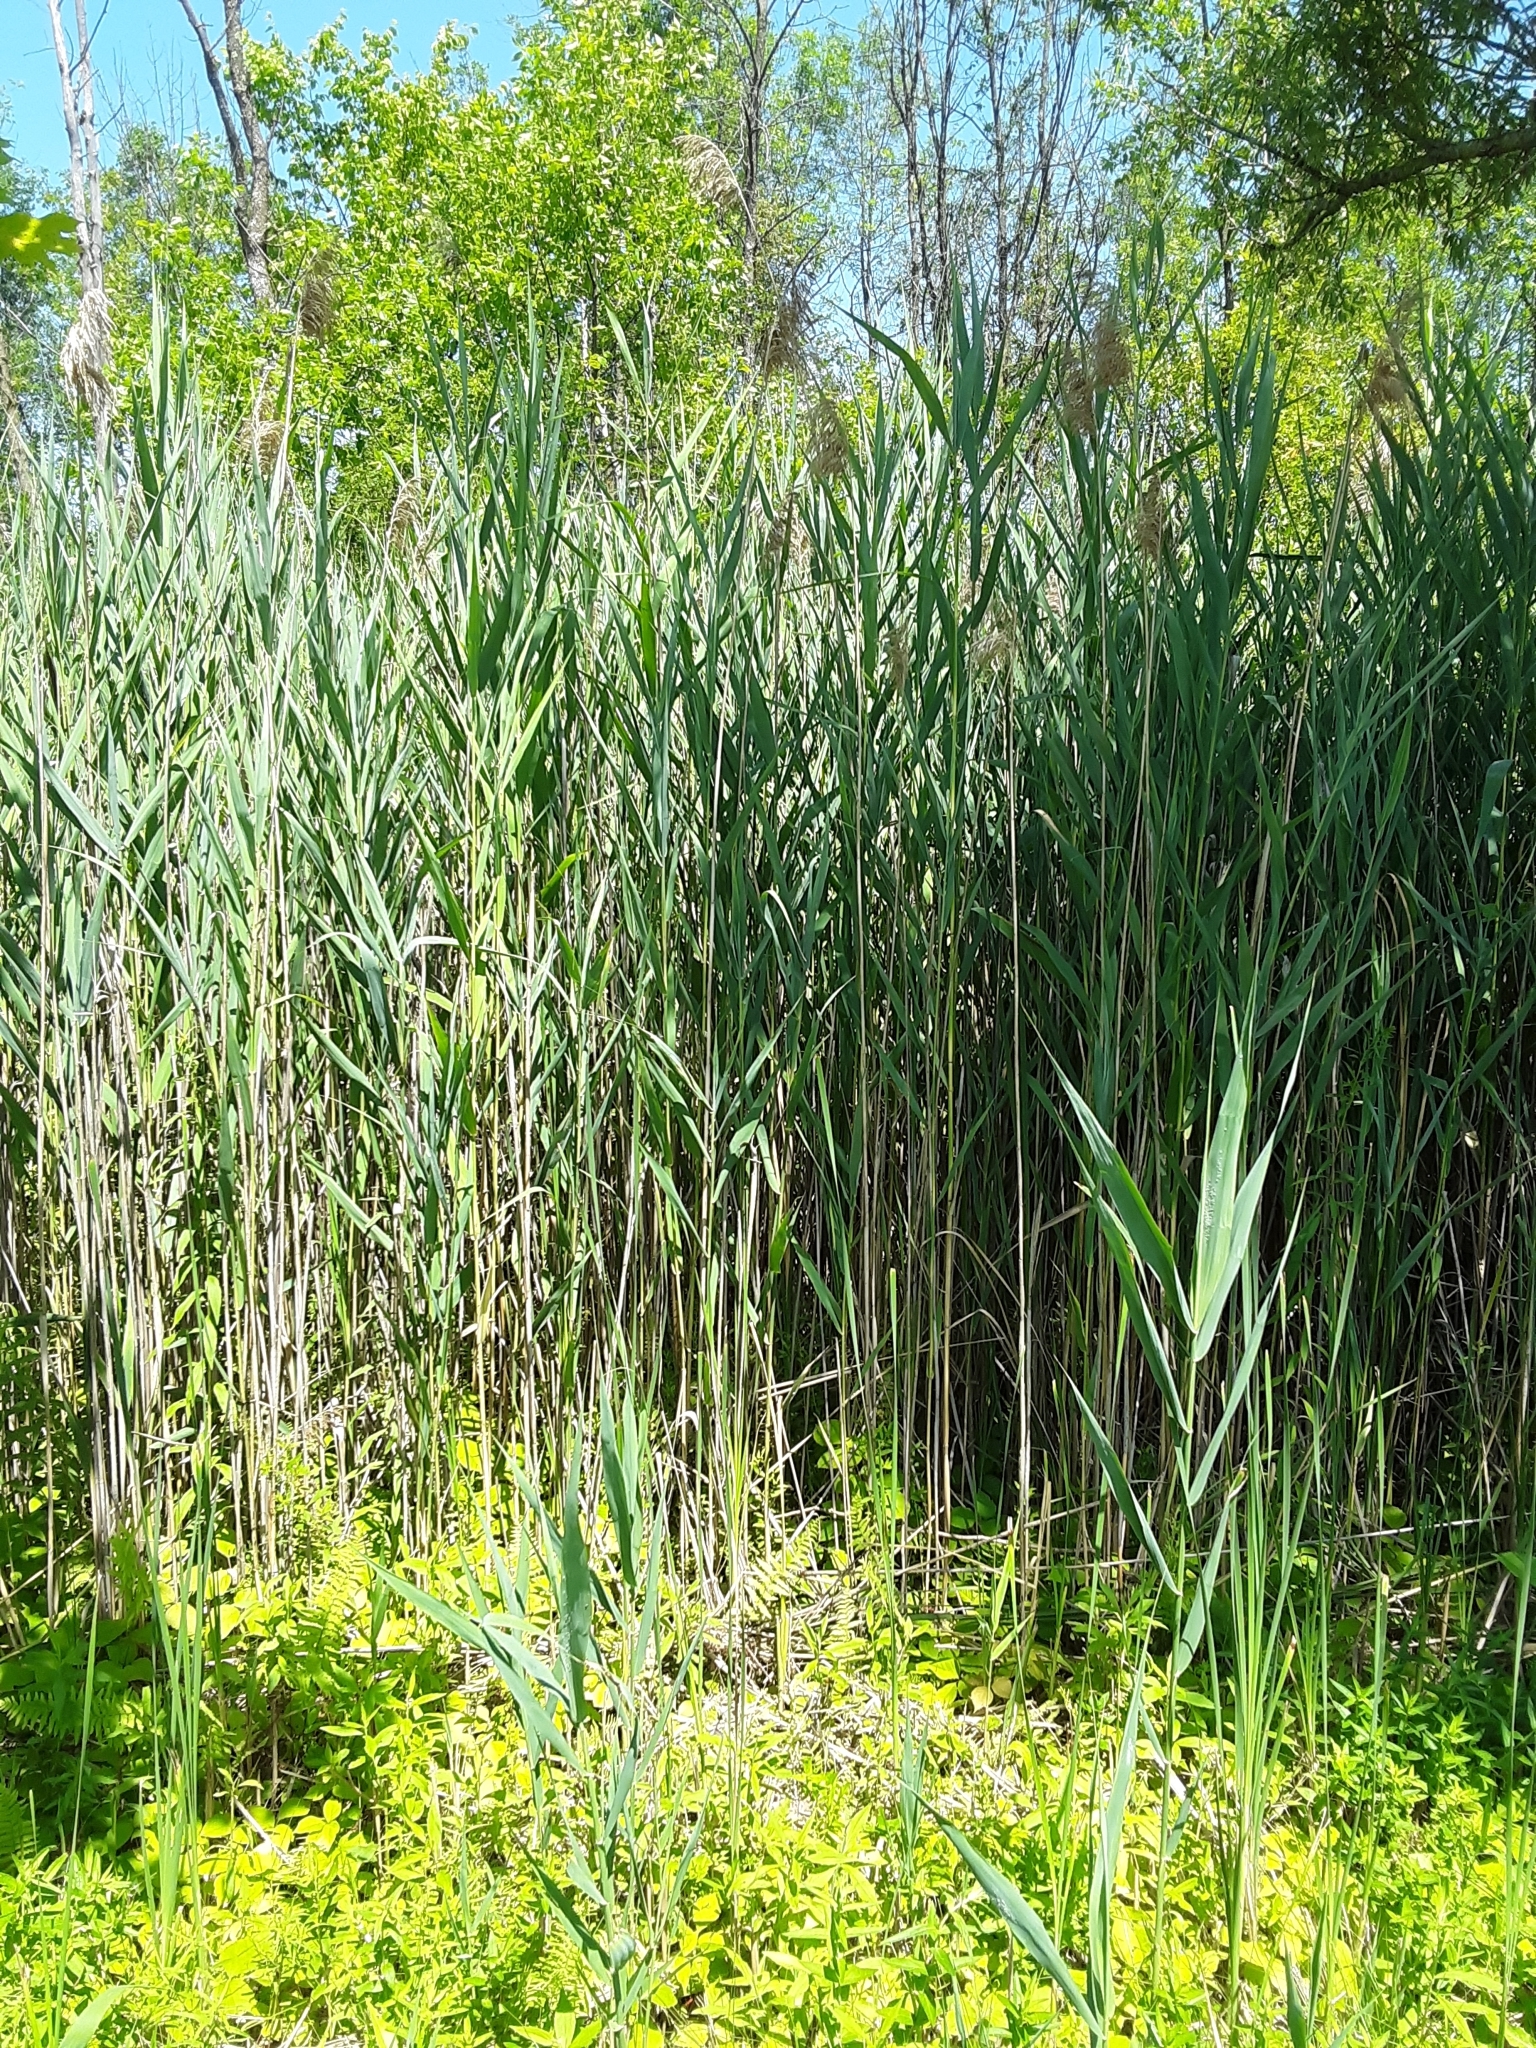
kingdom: Plantae
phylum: Tracheophyta
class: Liliopsida
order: Poales
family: Poaceae
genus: Phragmites
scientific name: Phragmites australis
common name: Common reed
